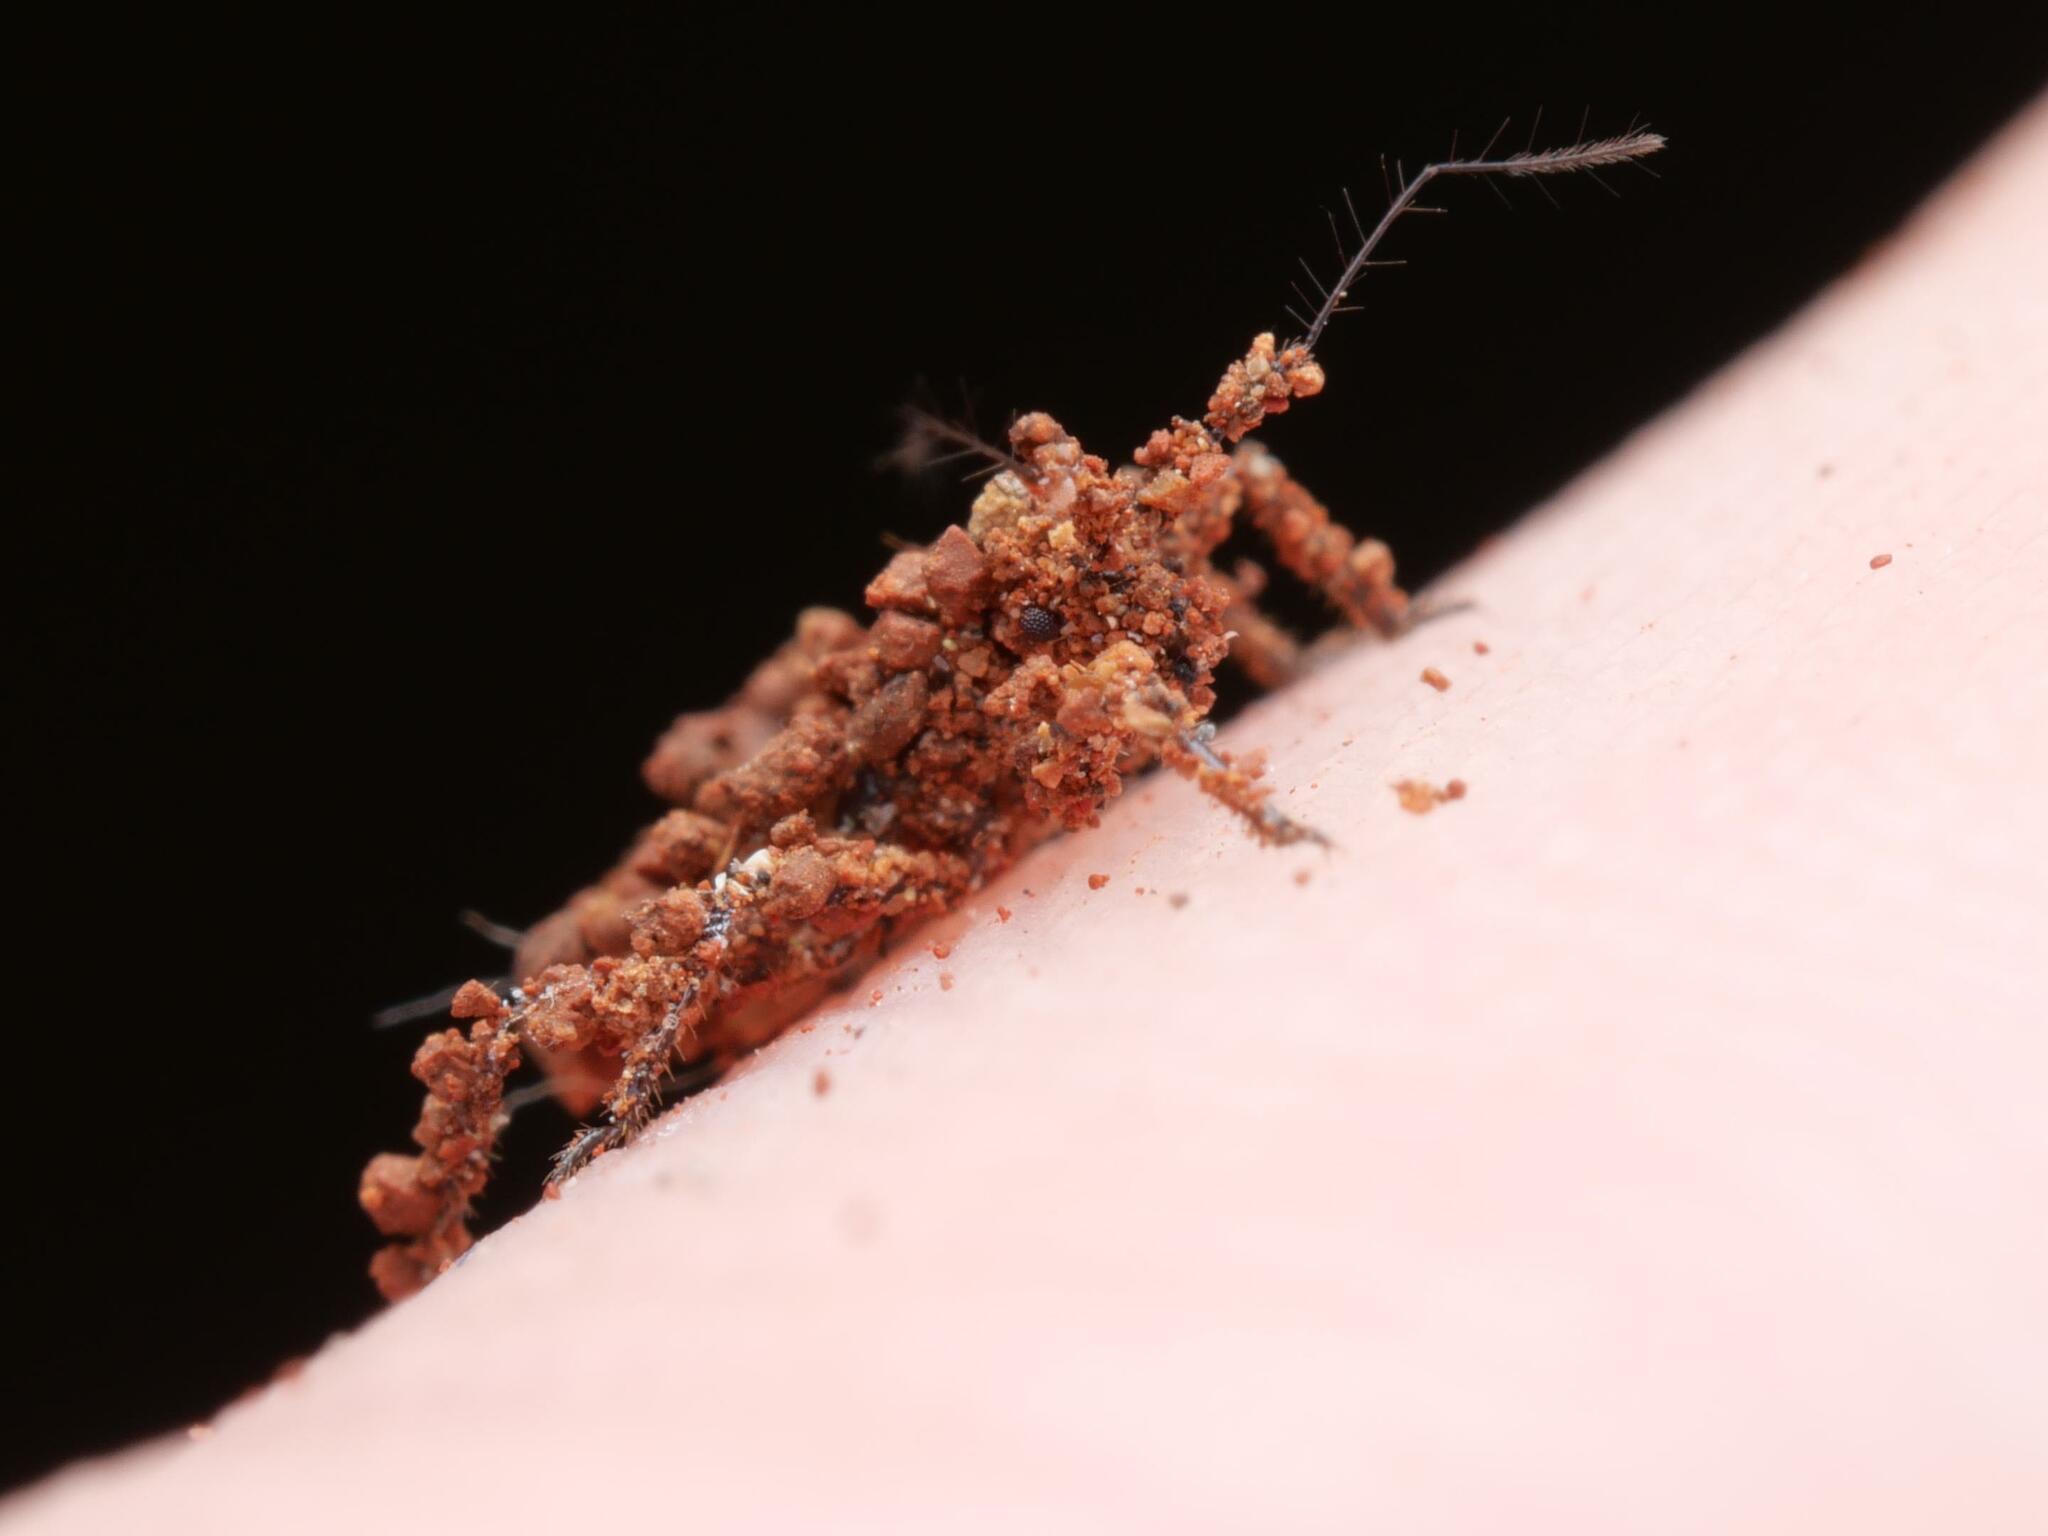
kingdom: Animalia
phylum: Arthropoda
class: Insecta
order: Hemiptera
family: Reduviidae
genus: Reduvius
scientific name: Reduvius personatus
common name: Masked hunter
